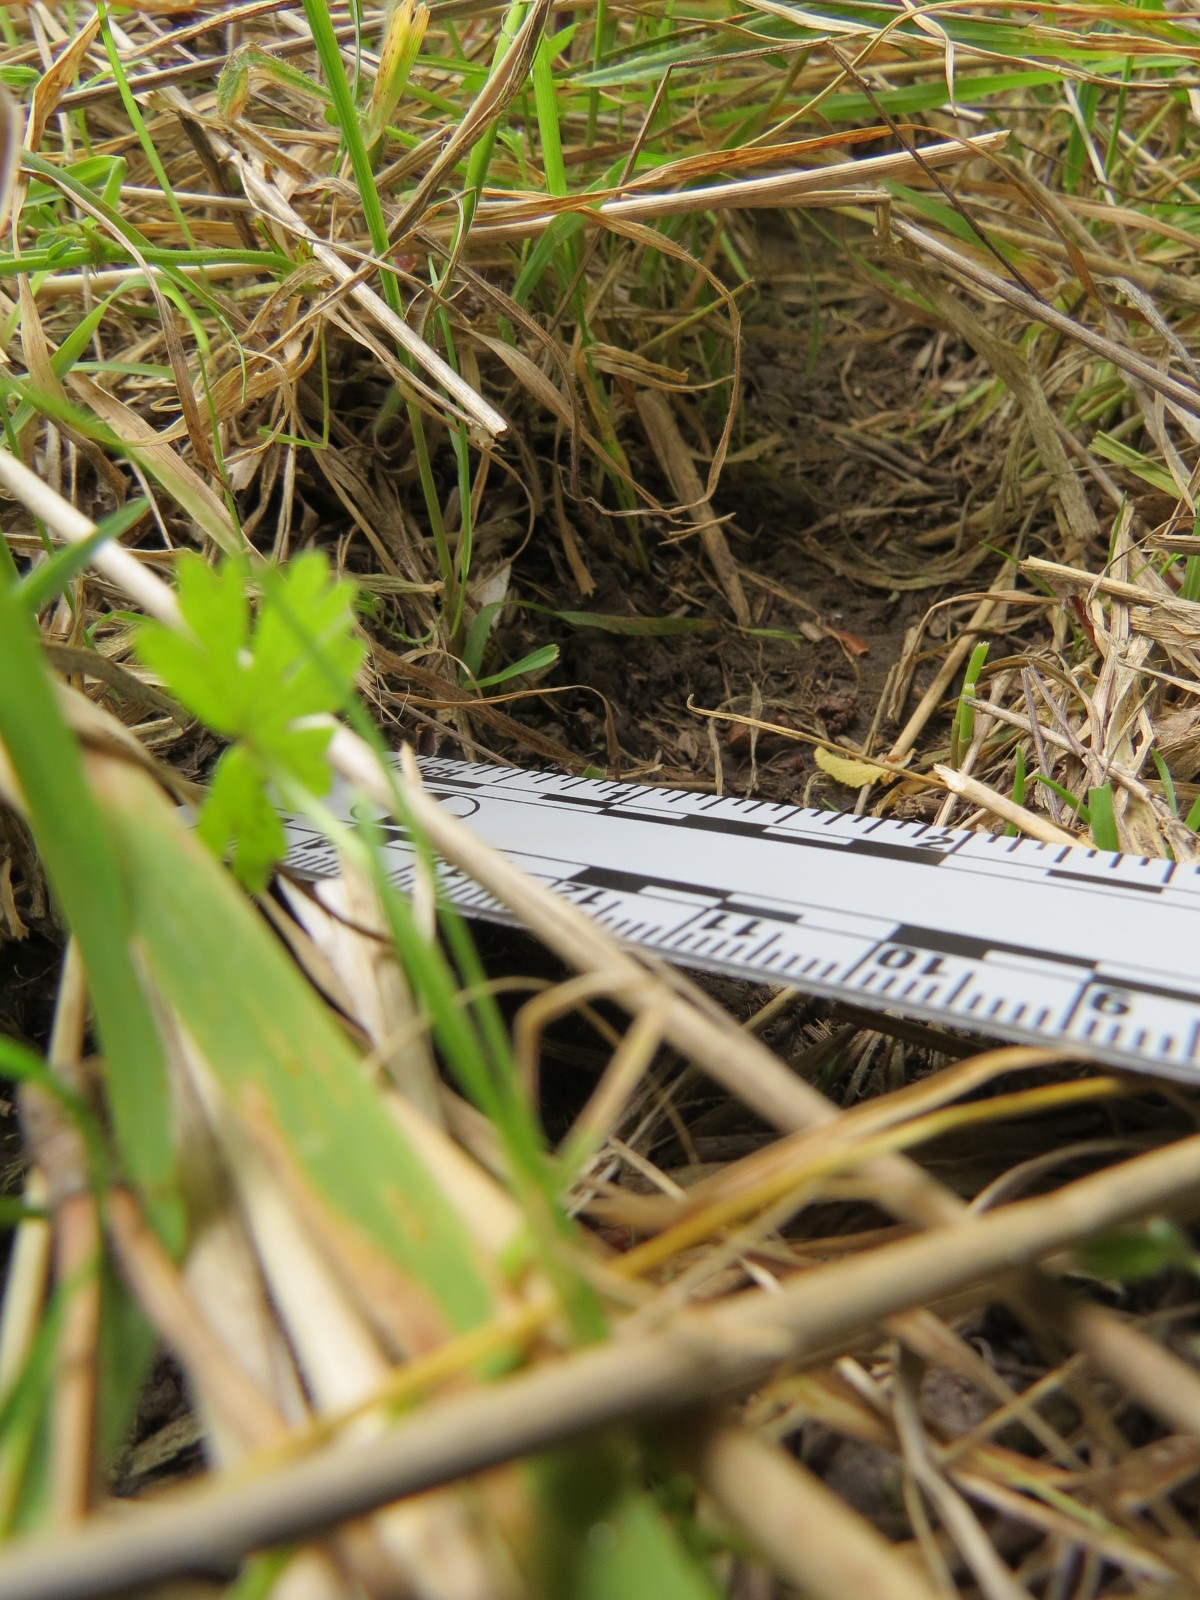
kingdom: Animalia
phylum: Chordata
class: Mammalia
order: Rodentia
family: Cricetidae
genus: Microtus
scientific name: Microtus californicus
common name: California vole
